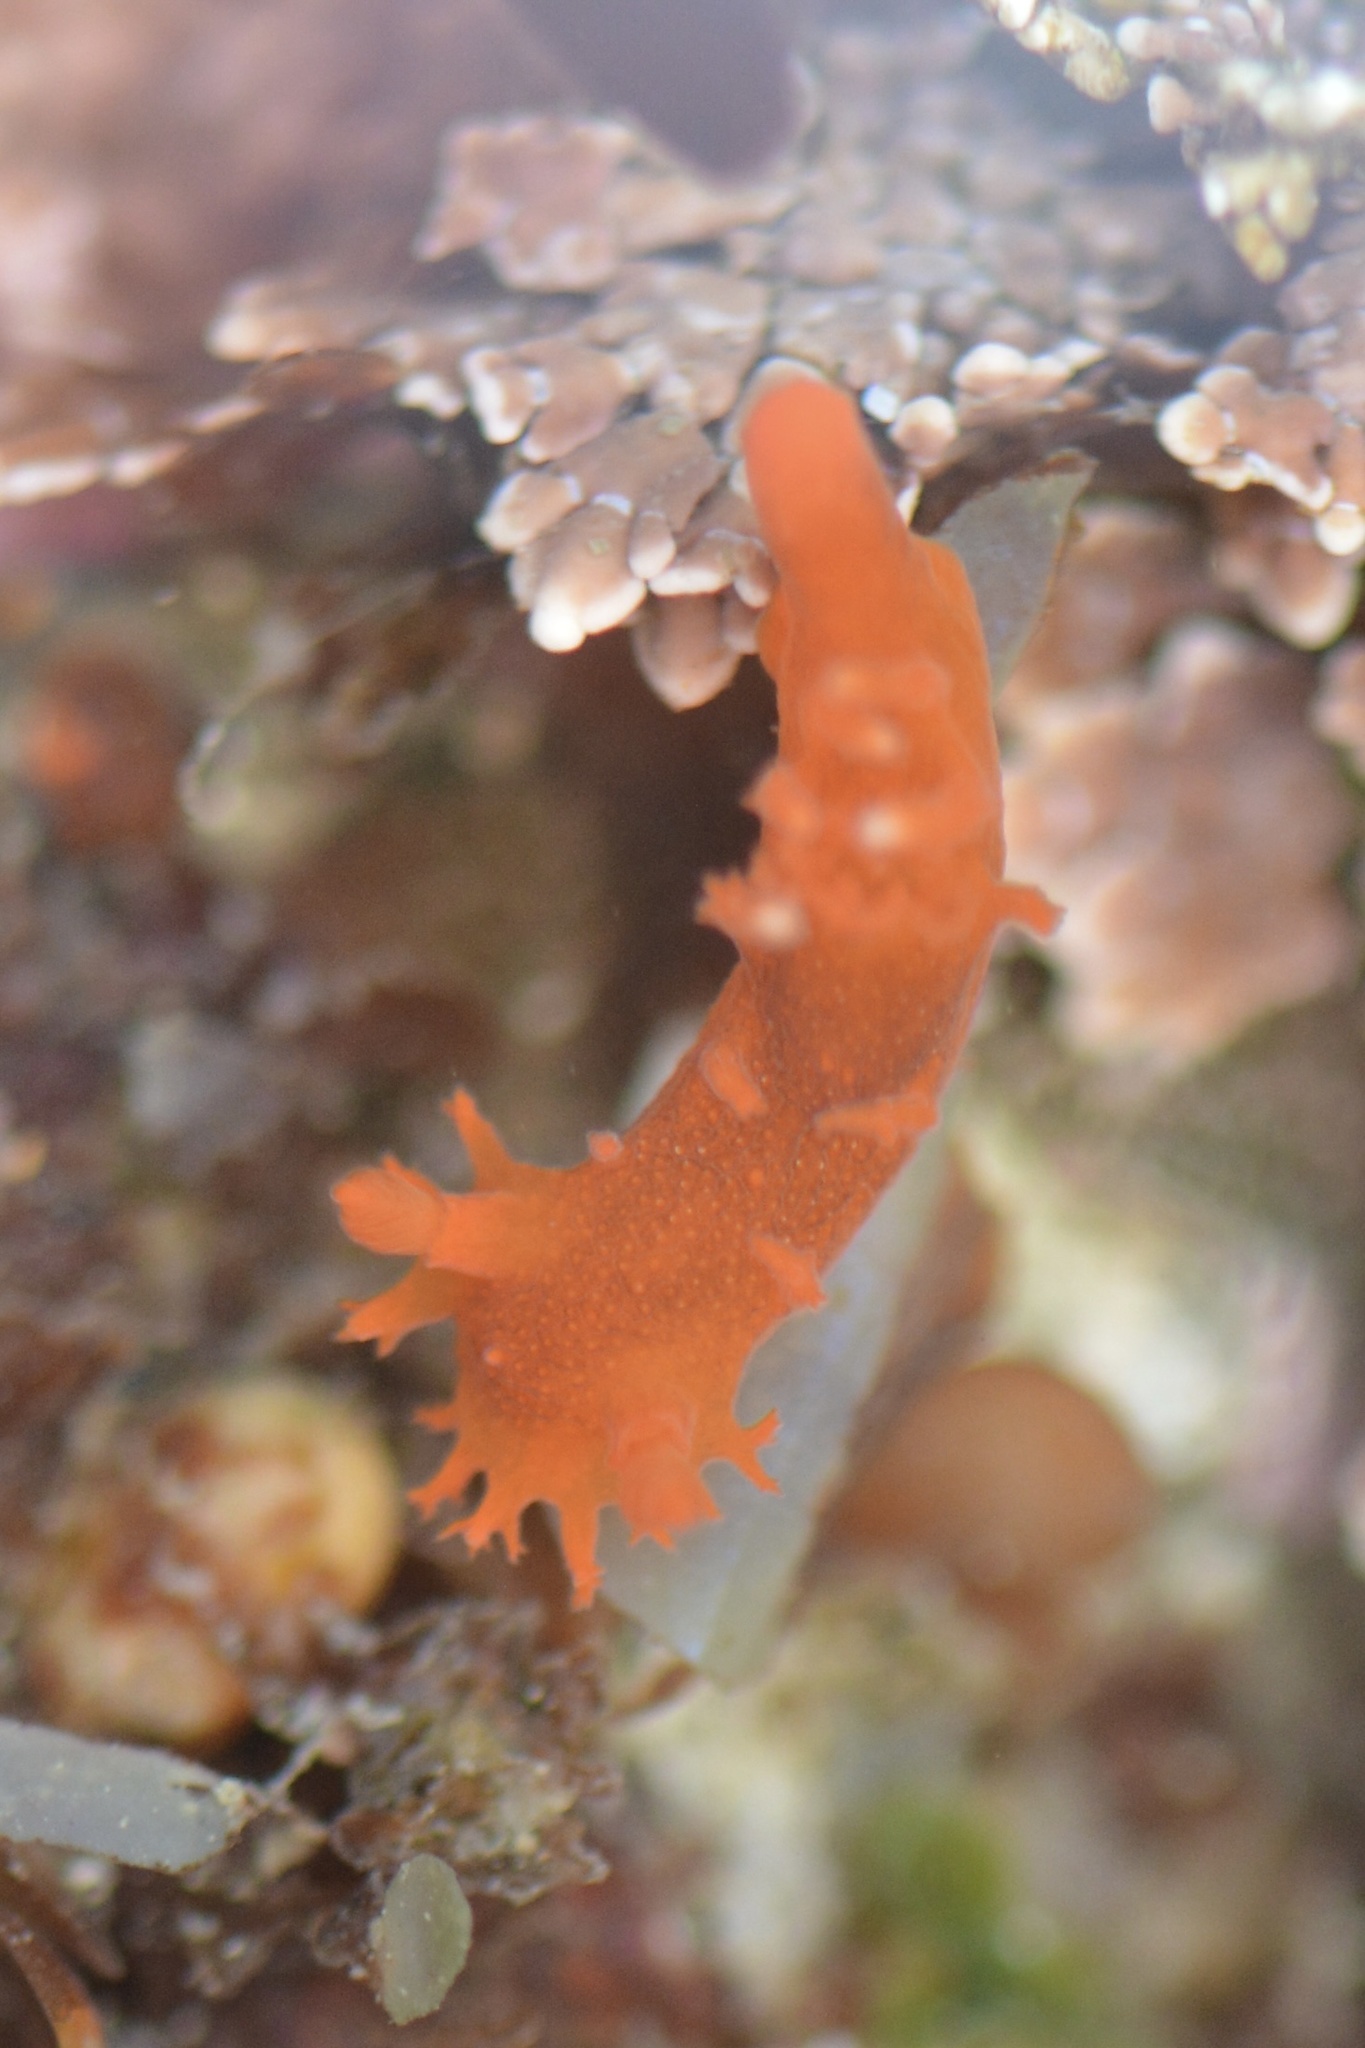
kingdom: Animalia
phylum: Mollusca
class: Gastropoda
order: Nudibranchia
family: Polyceridae
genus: Triopha
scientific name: Triopha maculata
